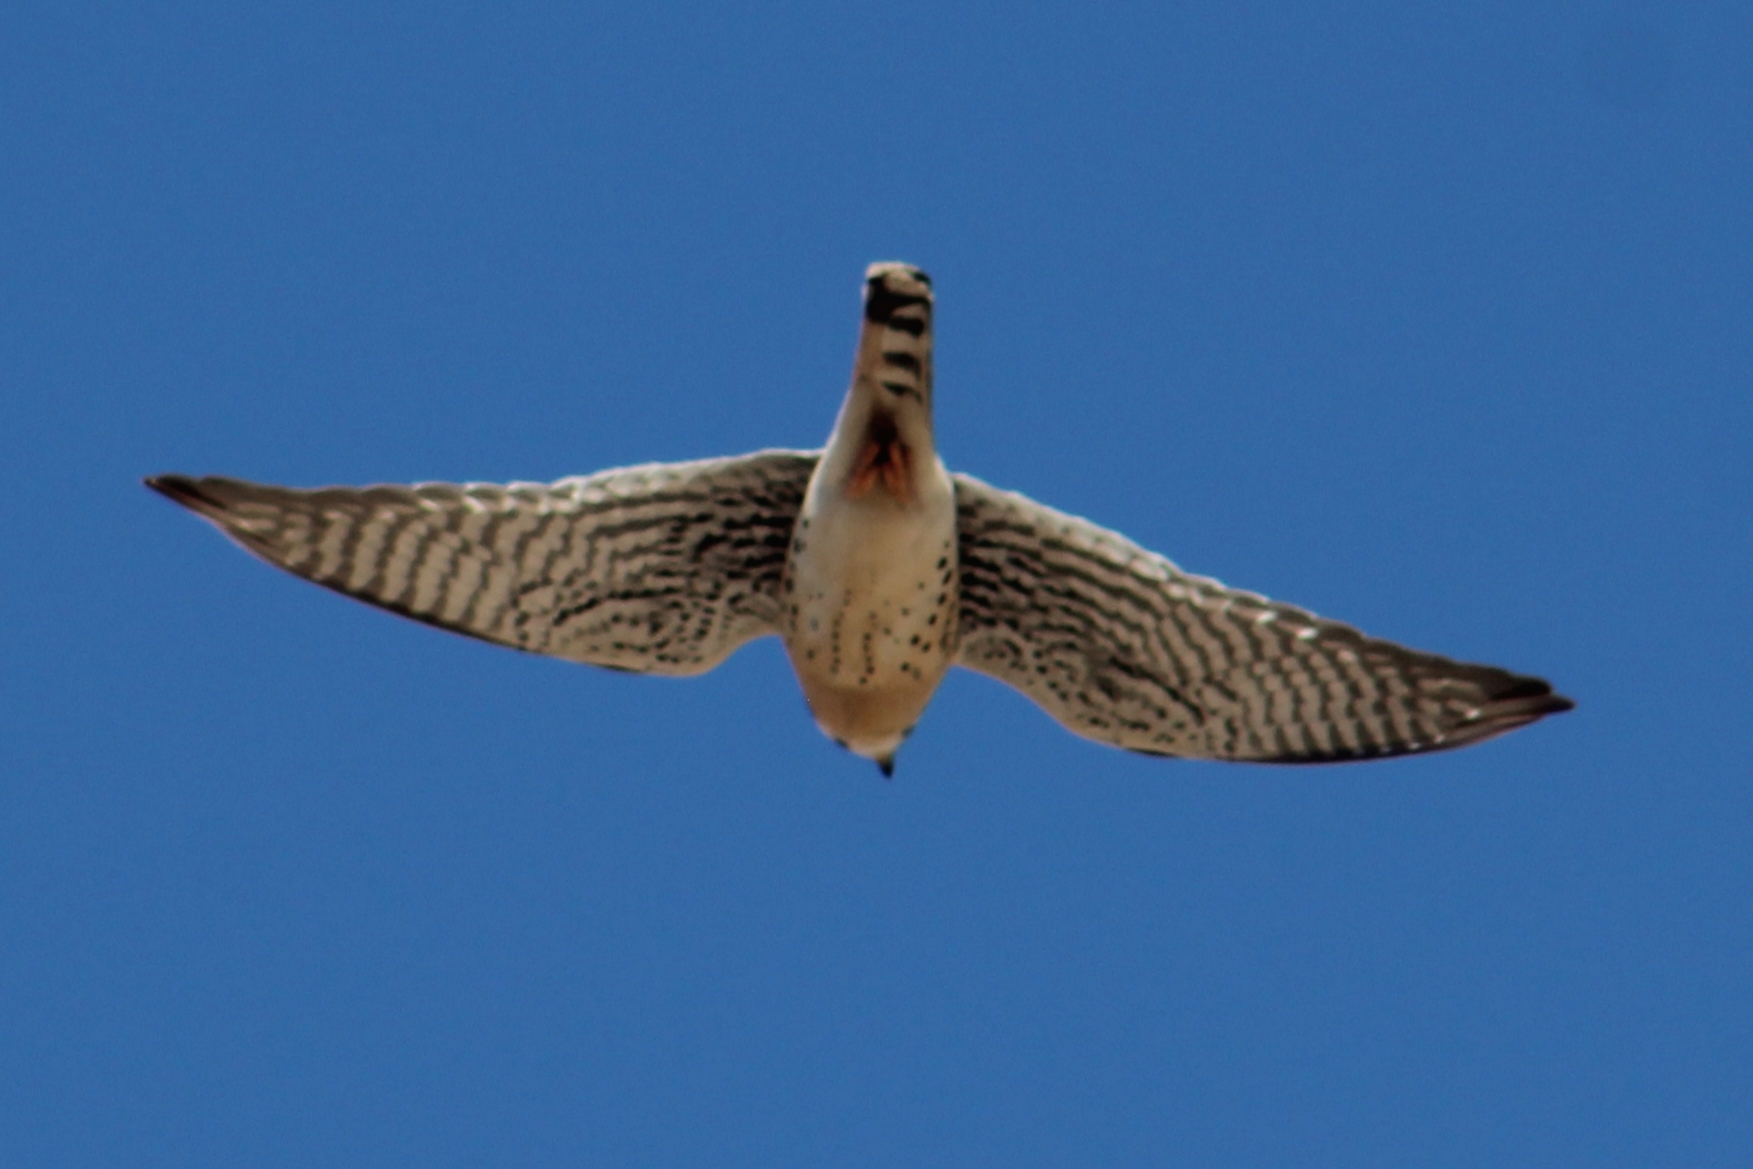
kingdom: Animalia
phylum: Chordata
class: Aves
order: Falconiformes
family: Falconidae
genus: Falco
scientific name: Falco sparverius
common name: American kestrel
